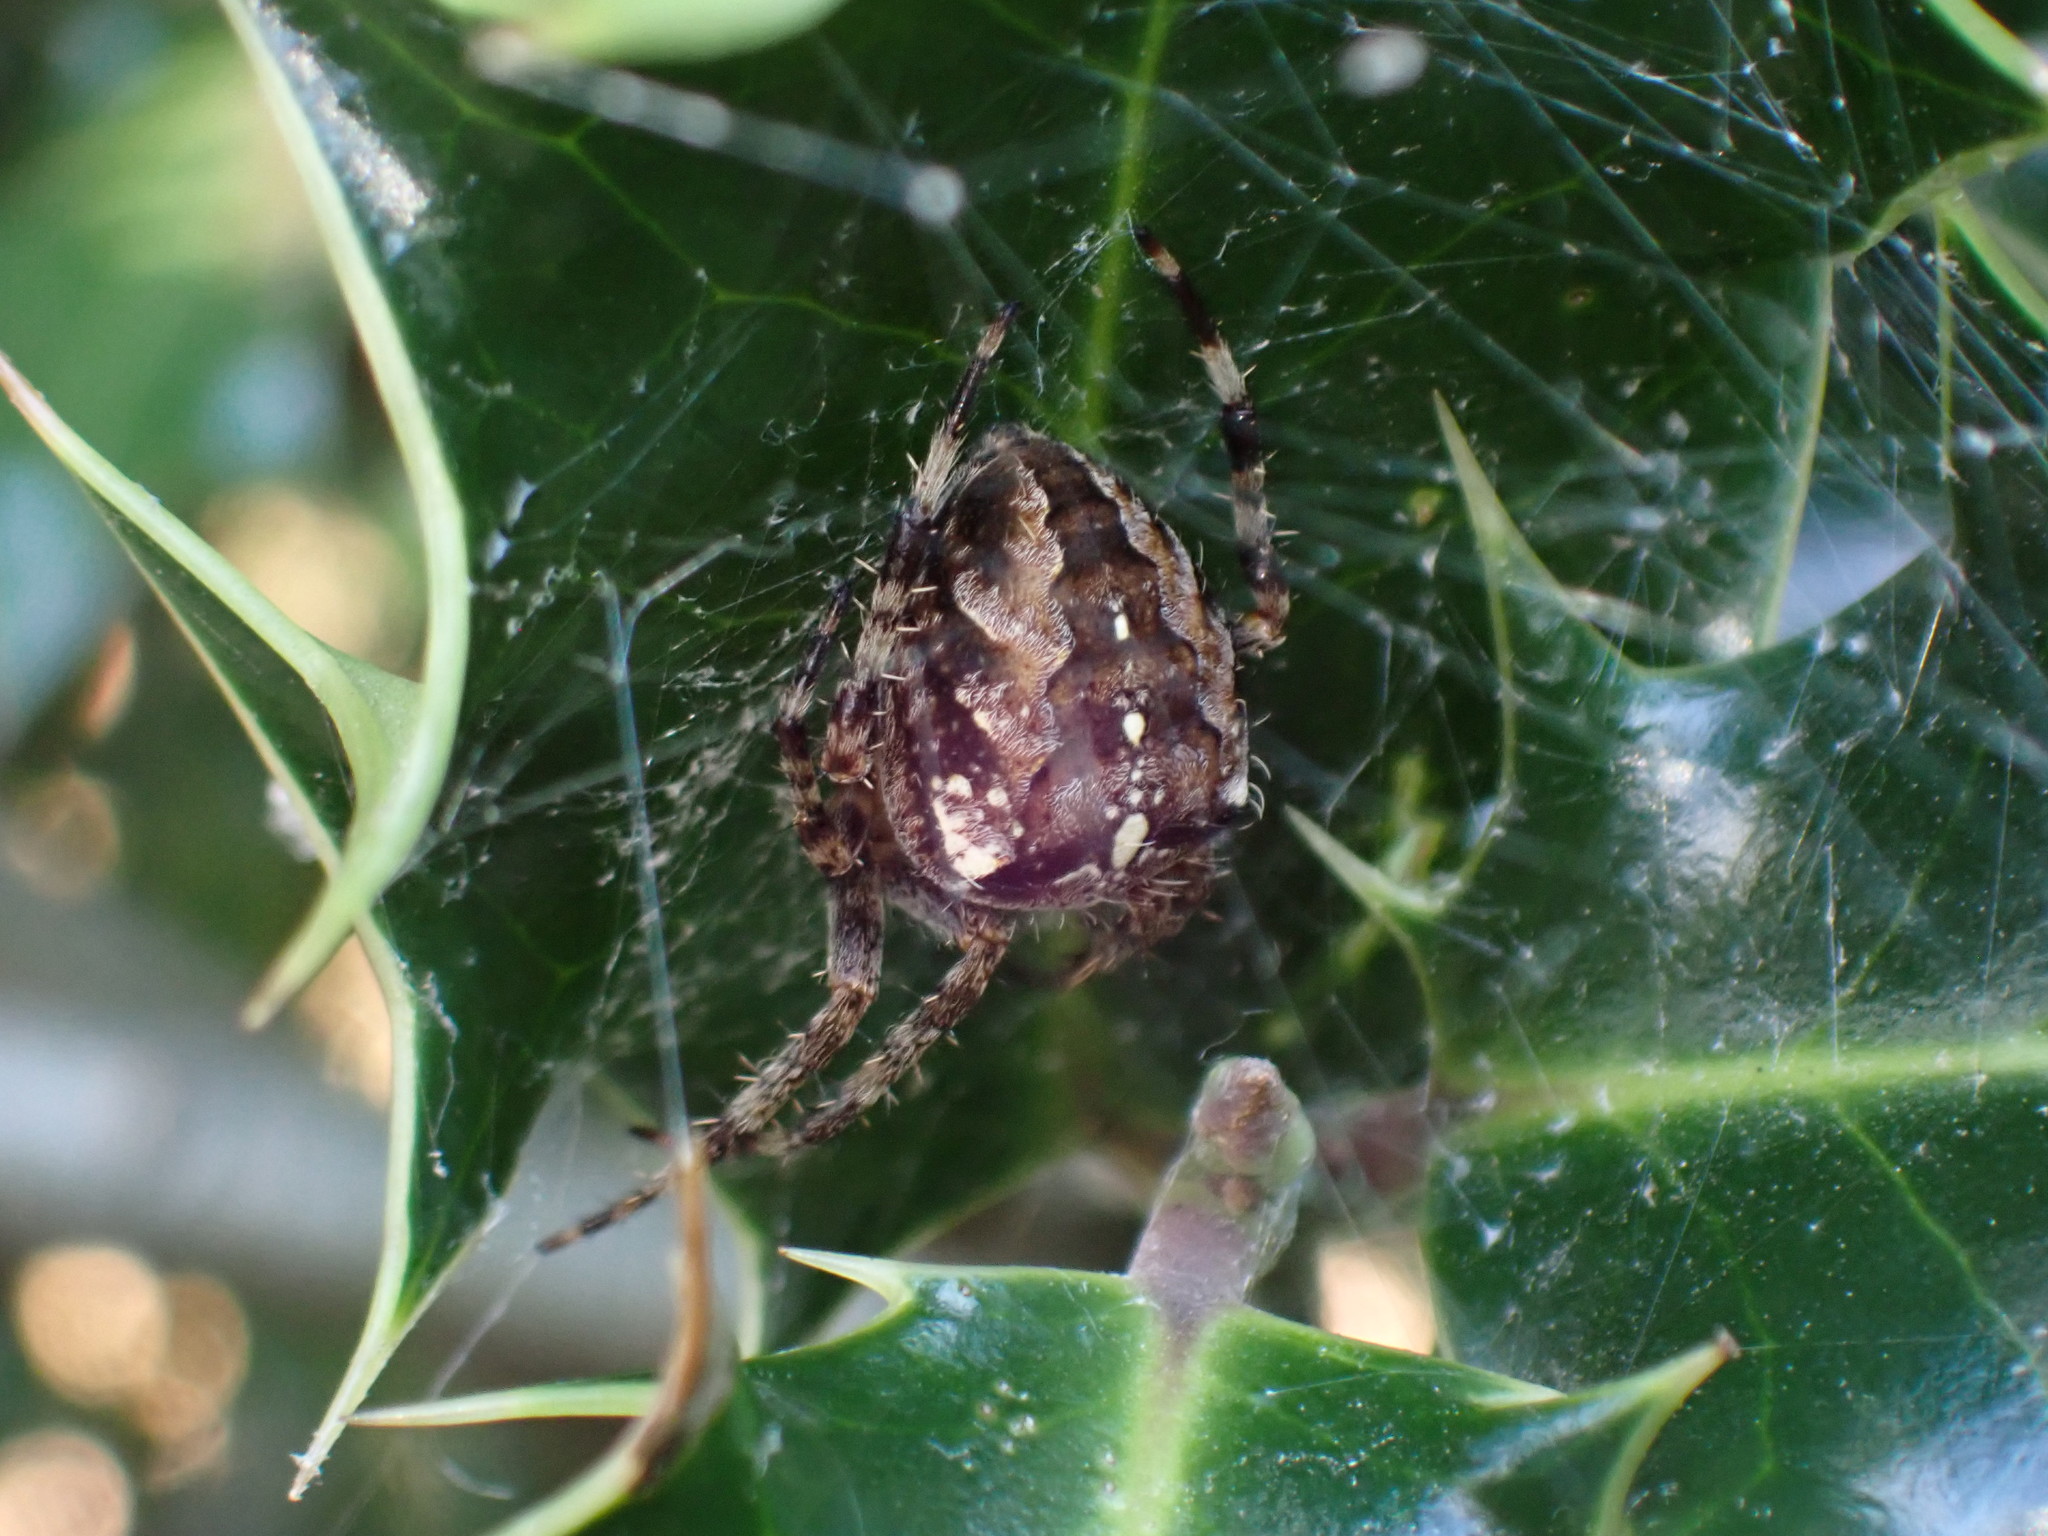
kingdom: Animalia
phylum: Arthropoda
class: Arachnida
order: Araneae
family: Araneidae
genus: Araneus
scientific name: Araneus diadematus
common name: Cross orbweaver
